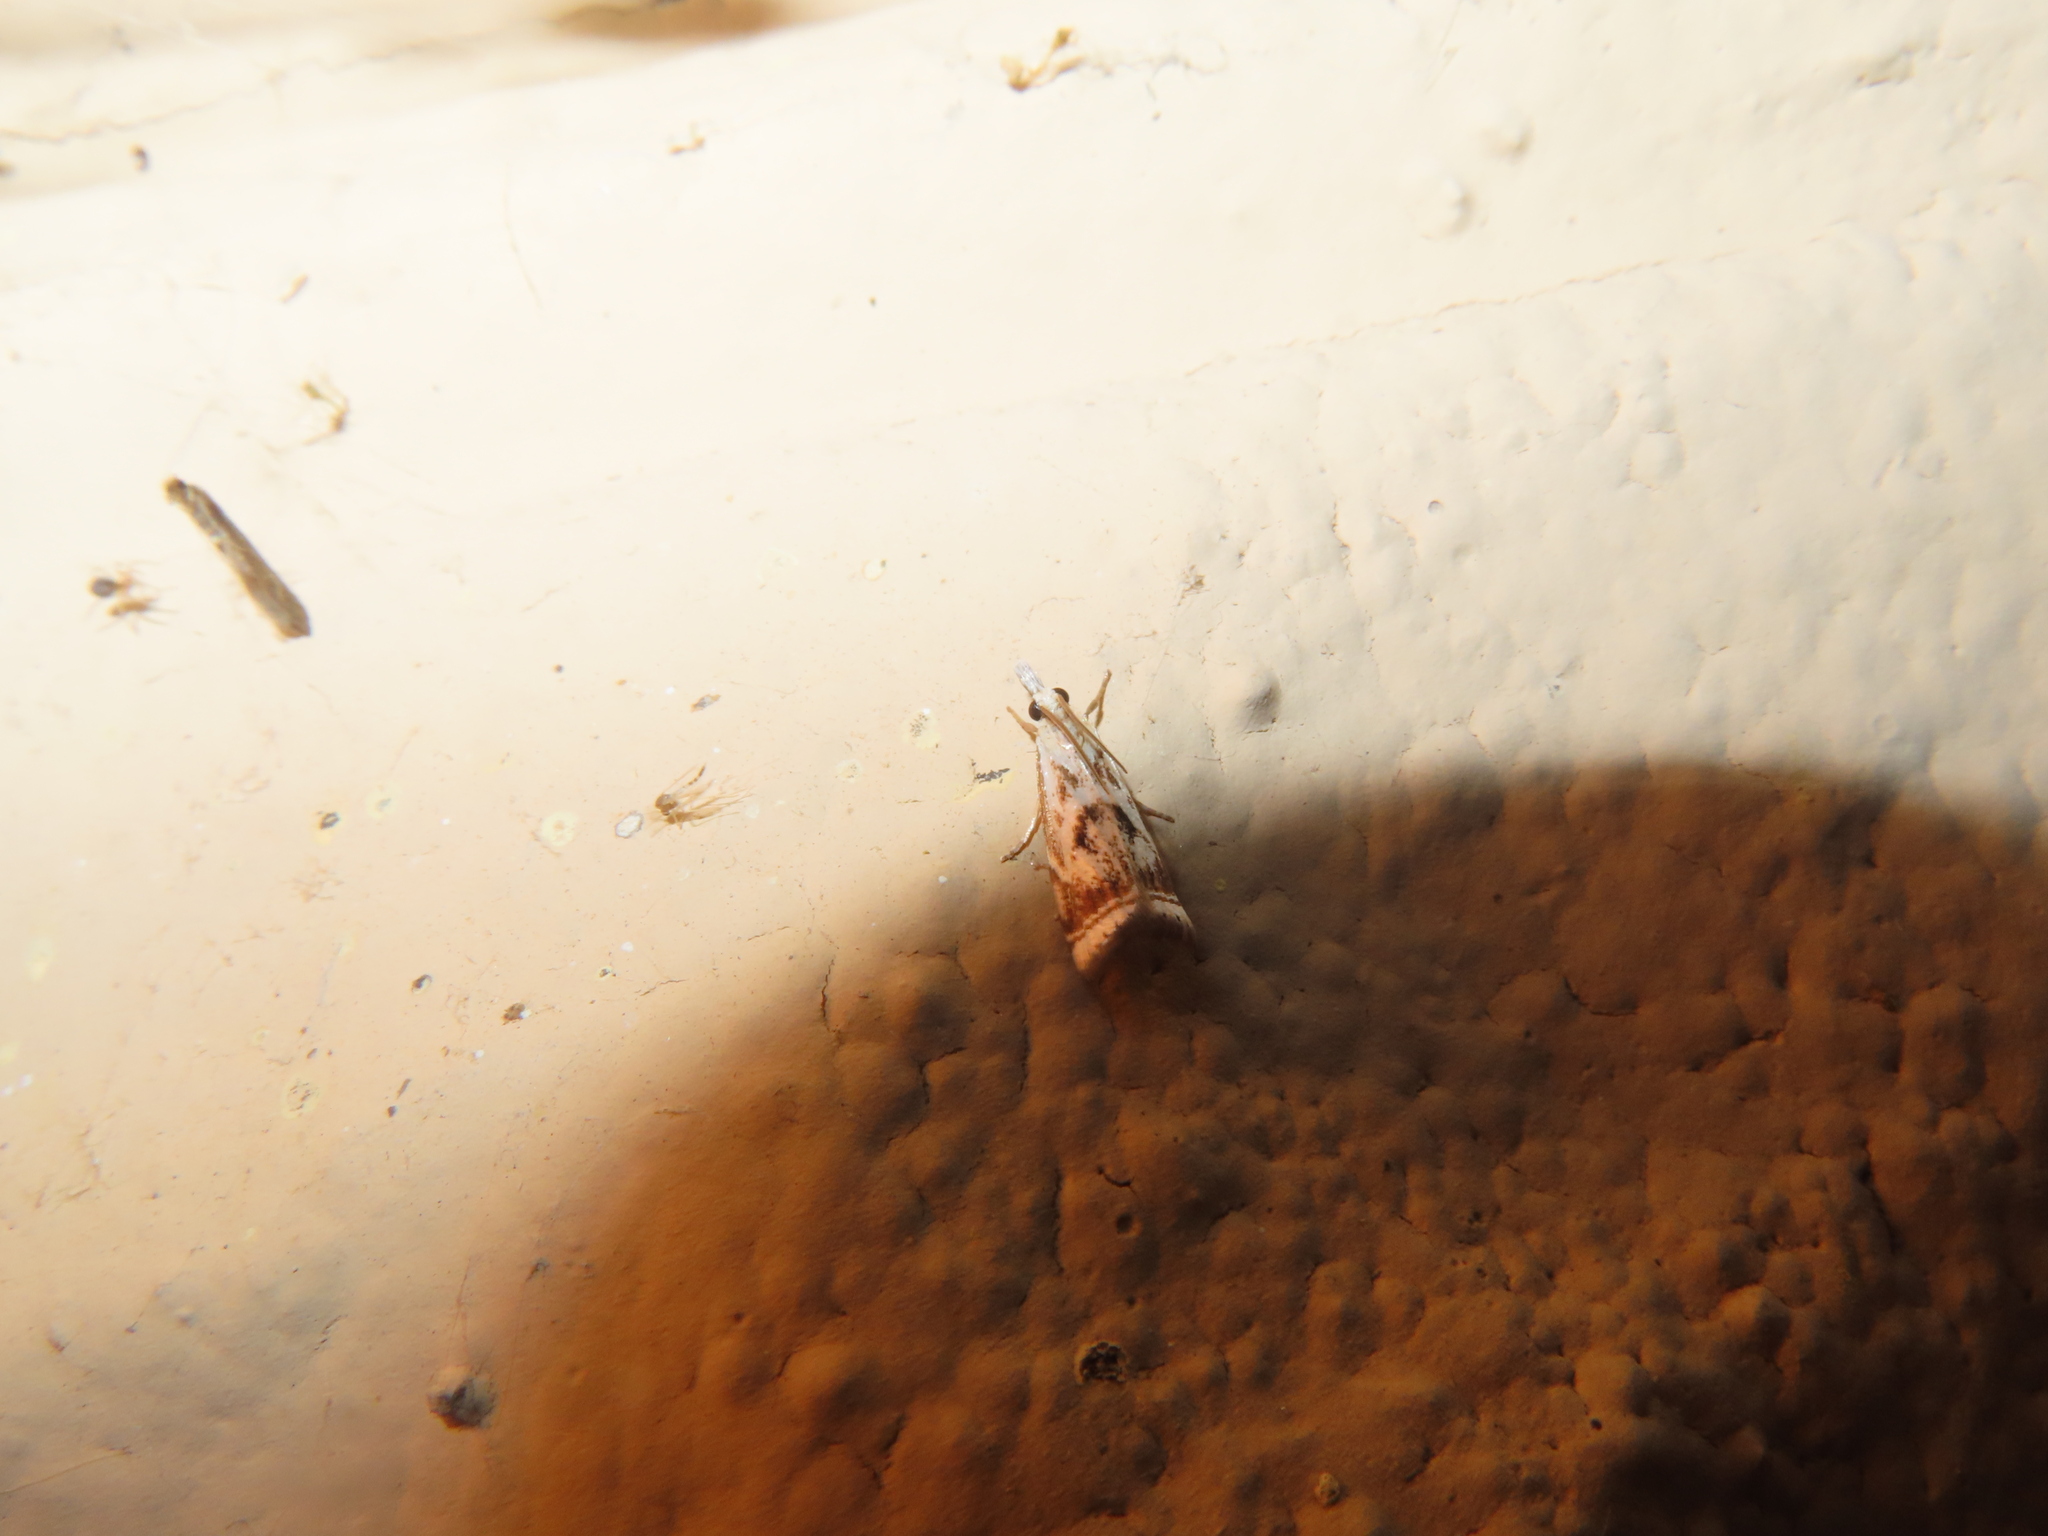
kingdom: Animalia
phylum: Arthropoda
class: Insecta
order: Lepidoptera
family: Crambidae
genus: Microcrambus
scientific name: Microcrambus elegans
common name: Elegant grass-veneer
